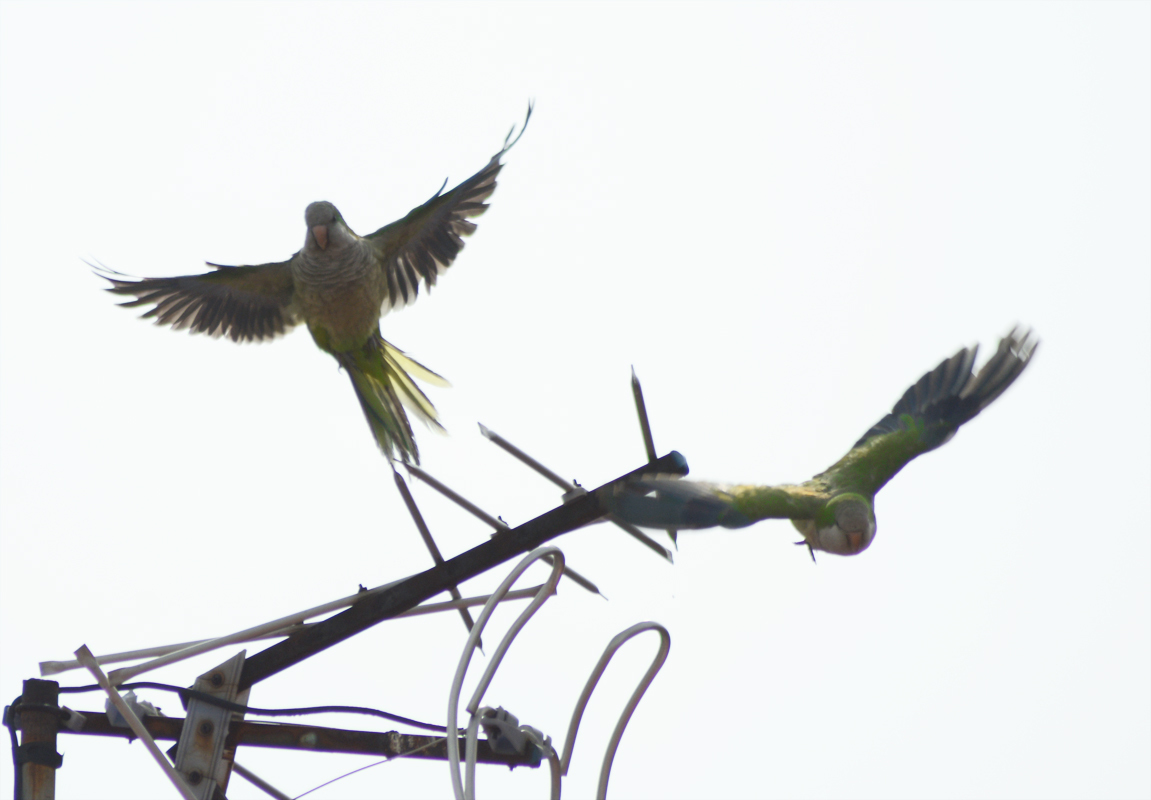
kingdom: Animalia
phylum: Chordata
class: Aves
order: Psittaciformes
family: Psittacidae
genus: Myiopsitta
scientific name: Myiopsitta monachus
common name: Monk parakeet
